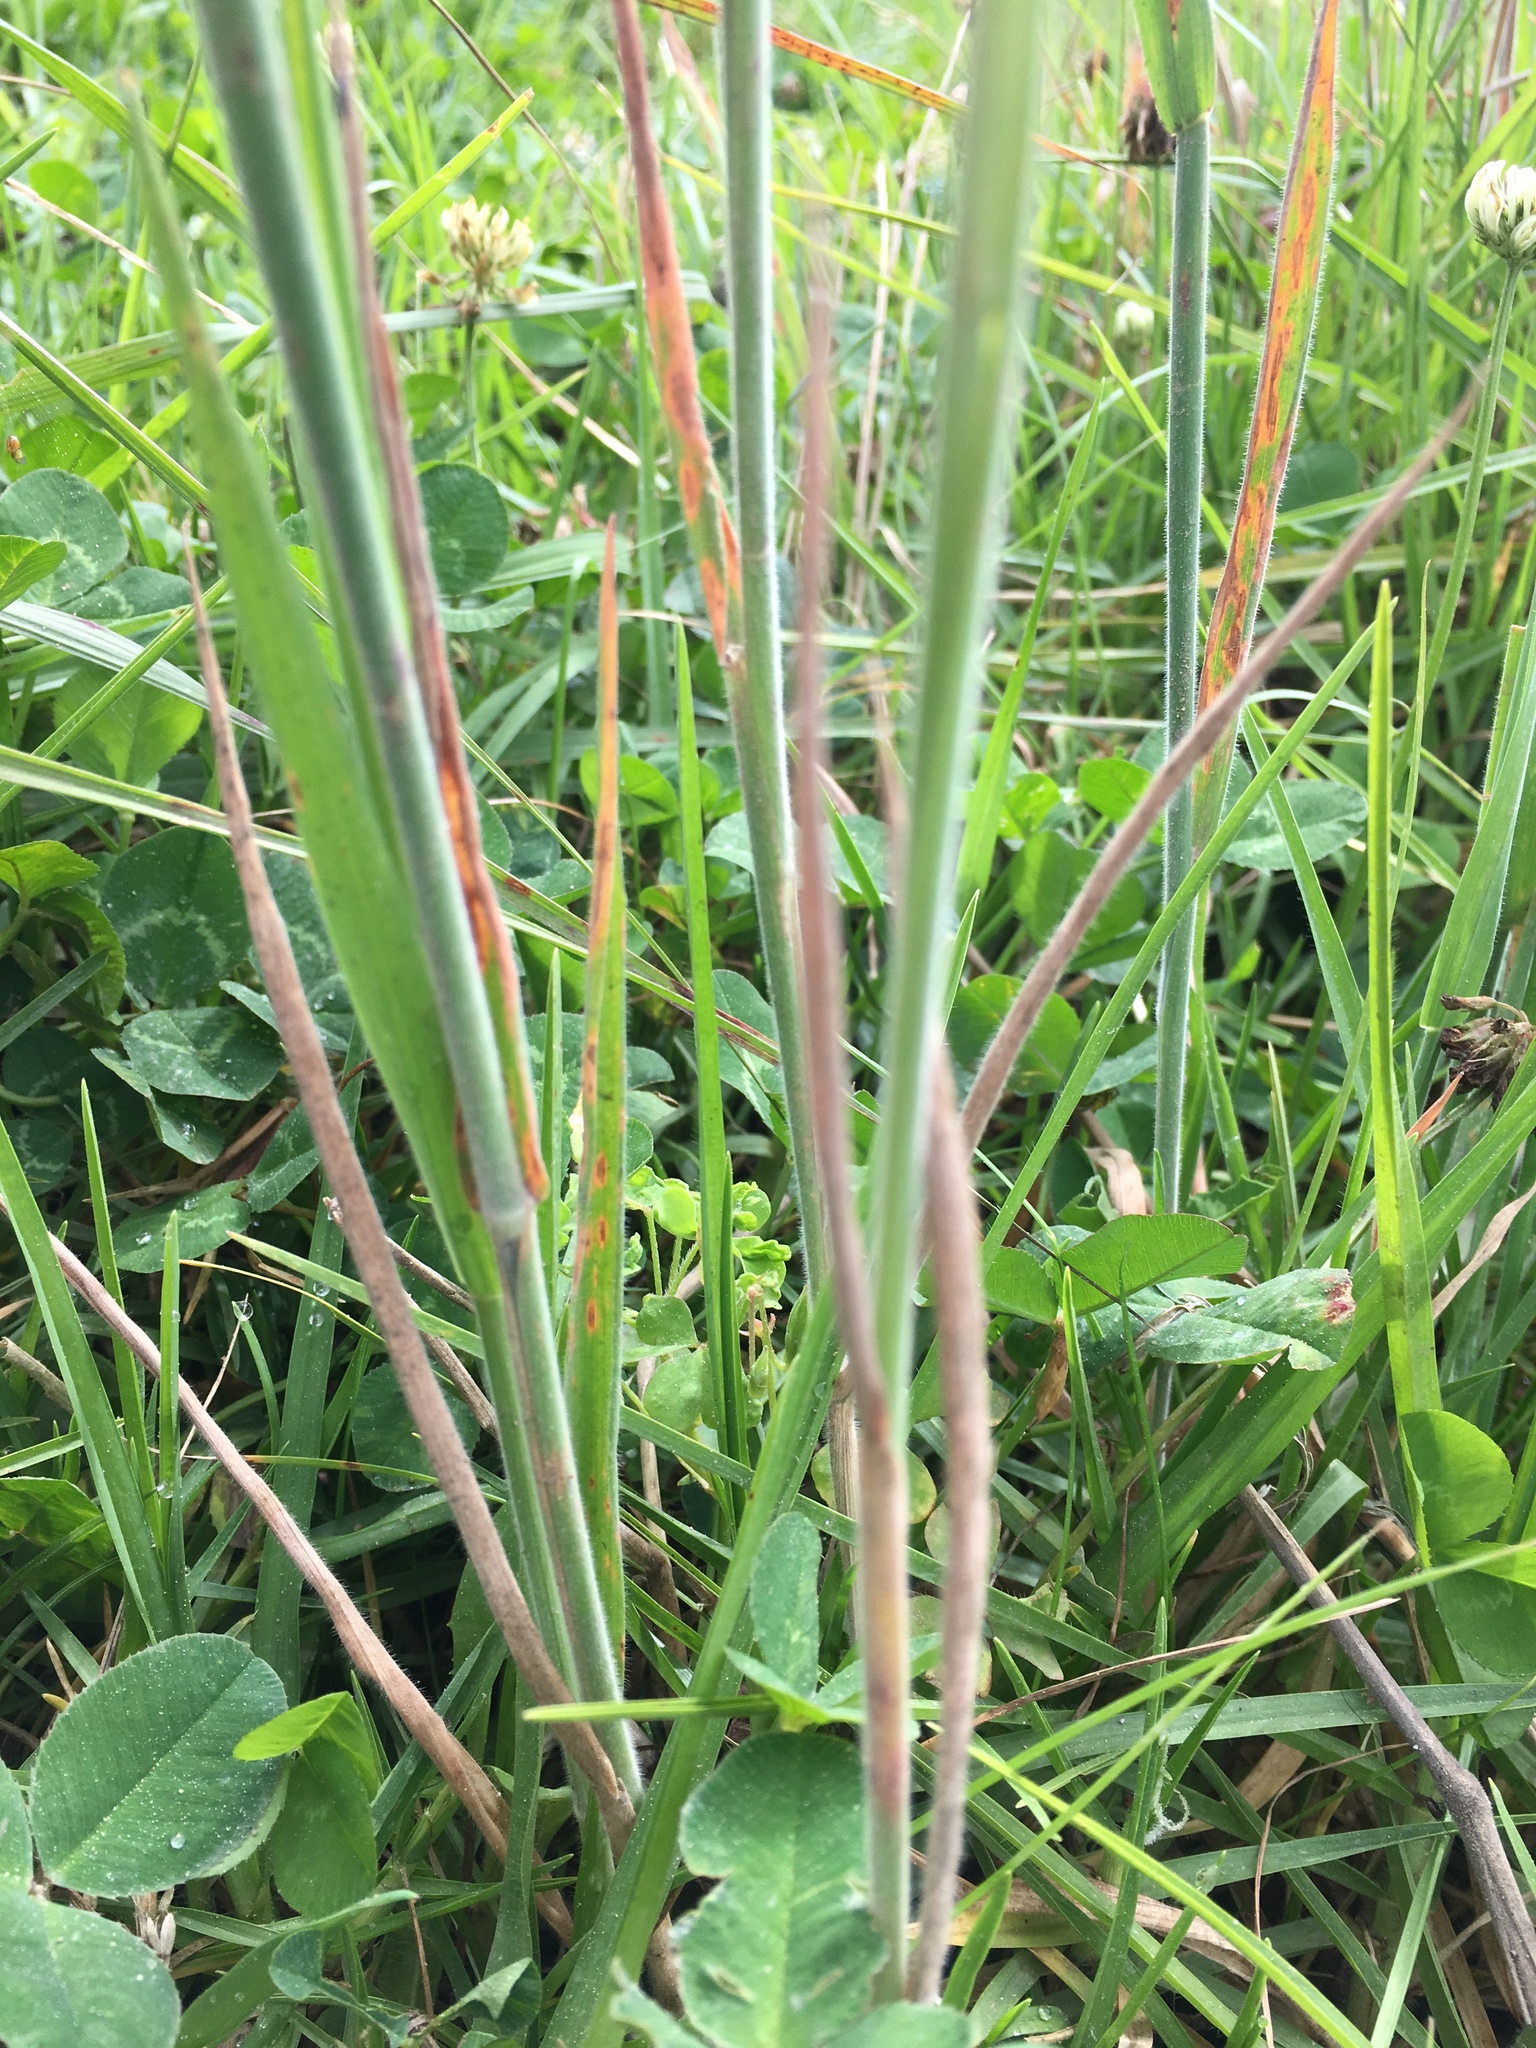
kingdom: Plantae
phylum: Tracheophyta
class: Liliopsida
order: Poales
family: Poaceae
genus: Holcus
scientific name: Holcus lanatus
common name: Yorkshire-fog
